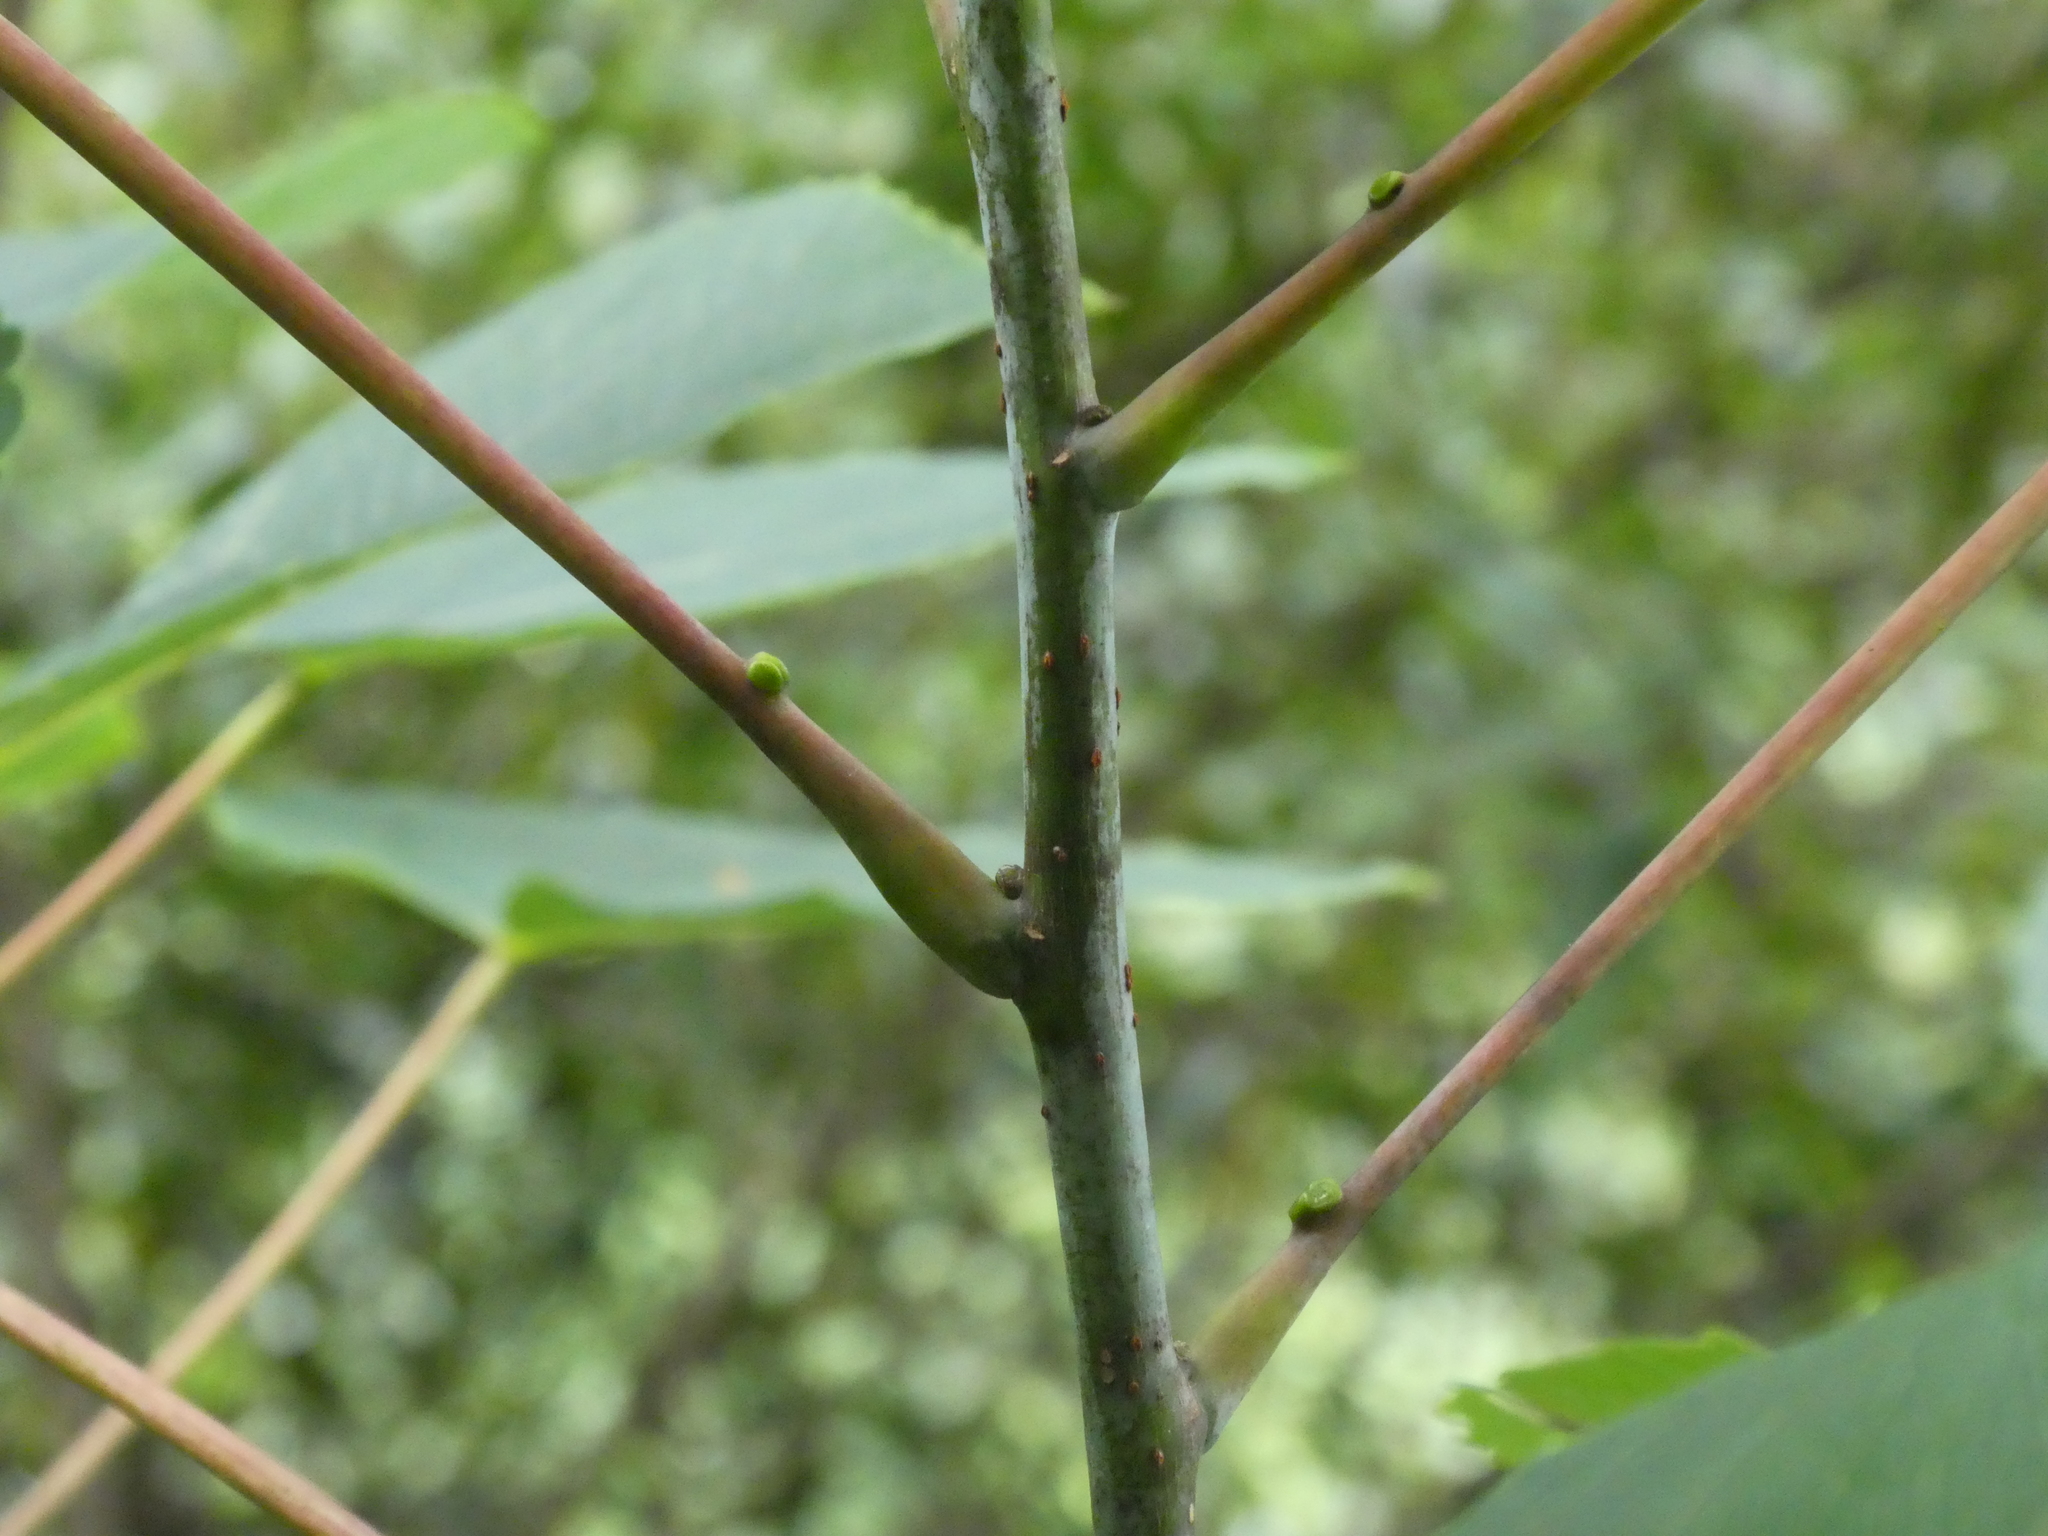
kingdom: Plantae
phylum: Tracheophyta
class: Magnoliopsida
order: Malpighiales
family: Salicaceae
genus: Idesia
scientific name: Idesia polycarpa
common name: Idesia tree
